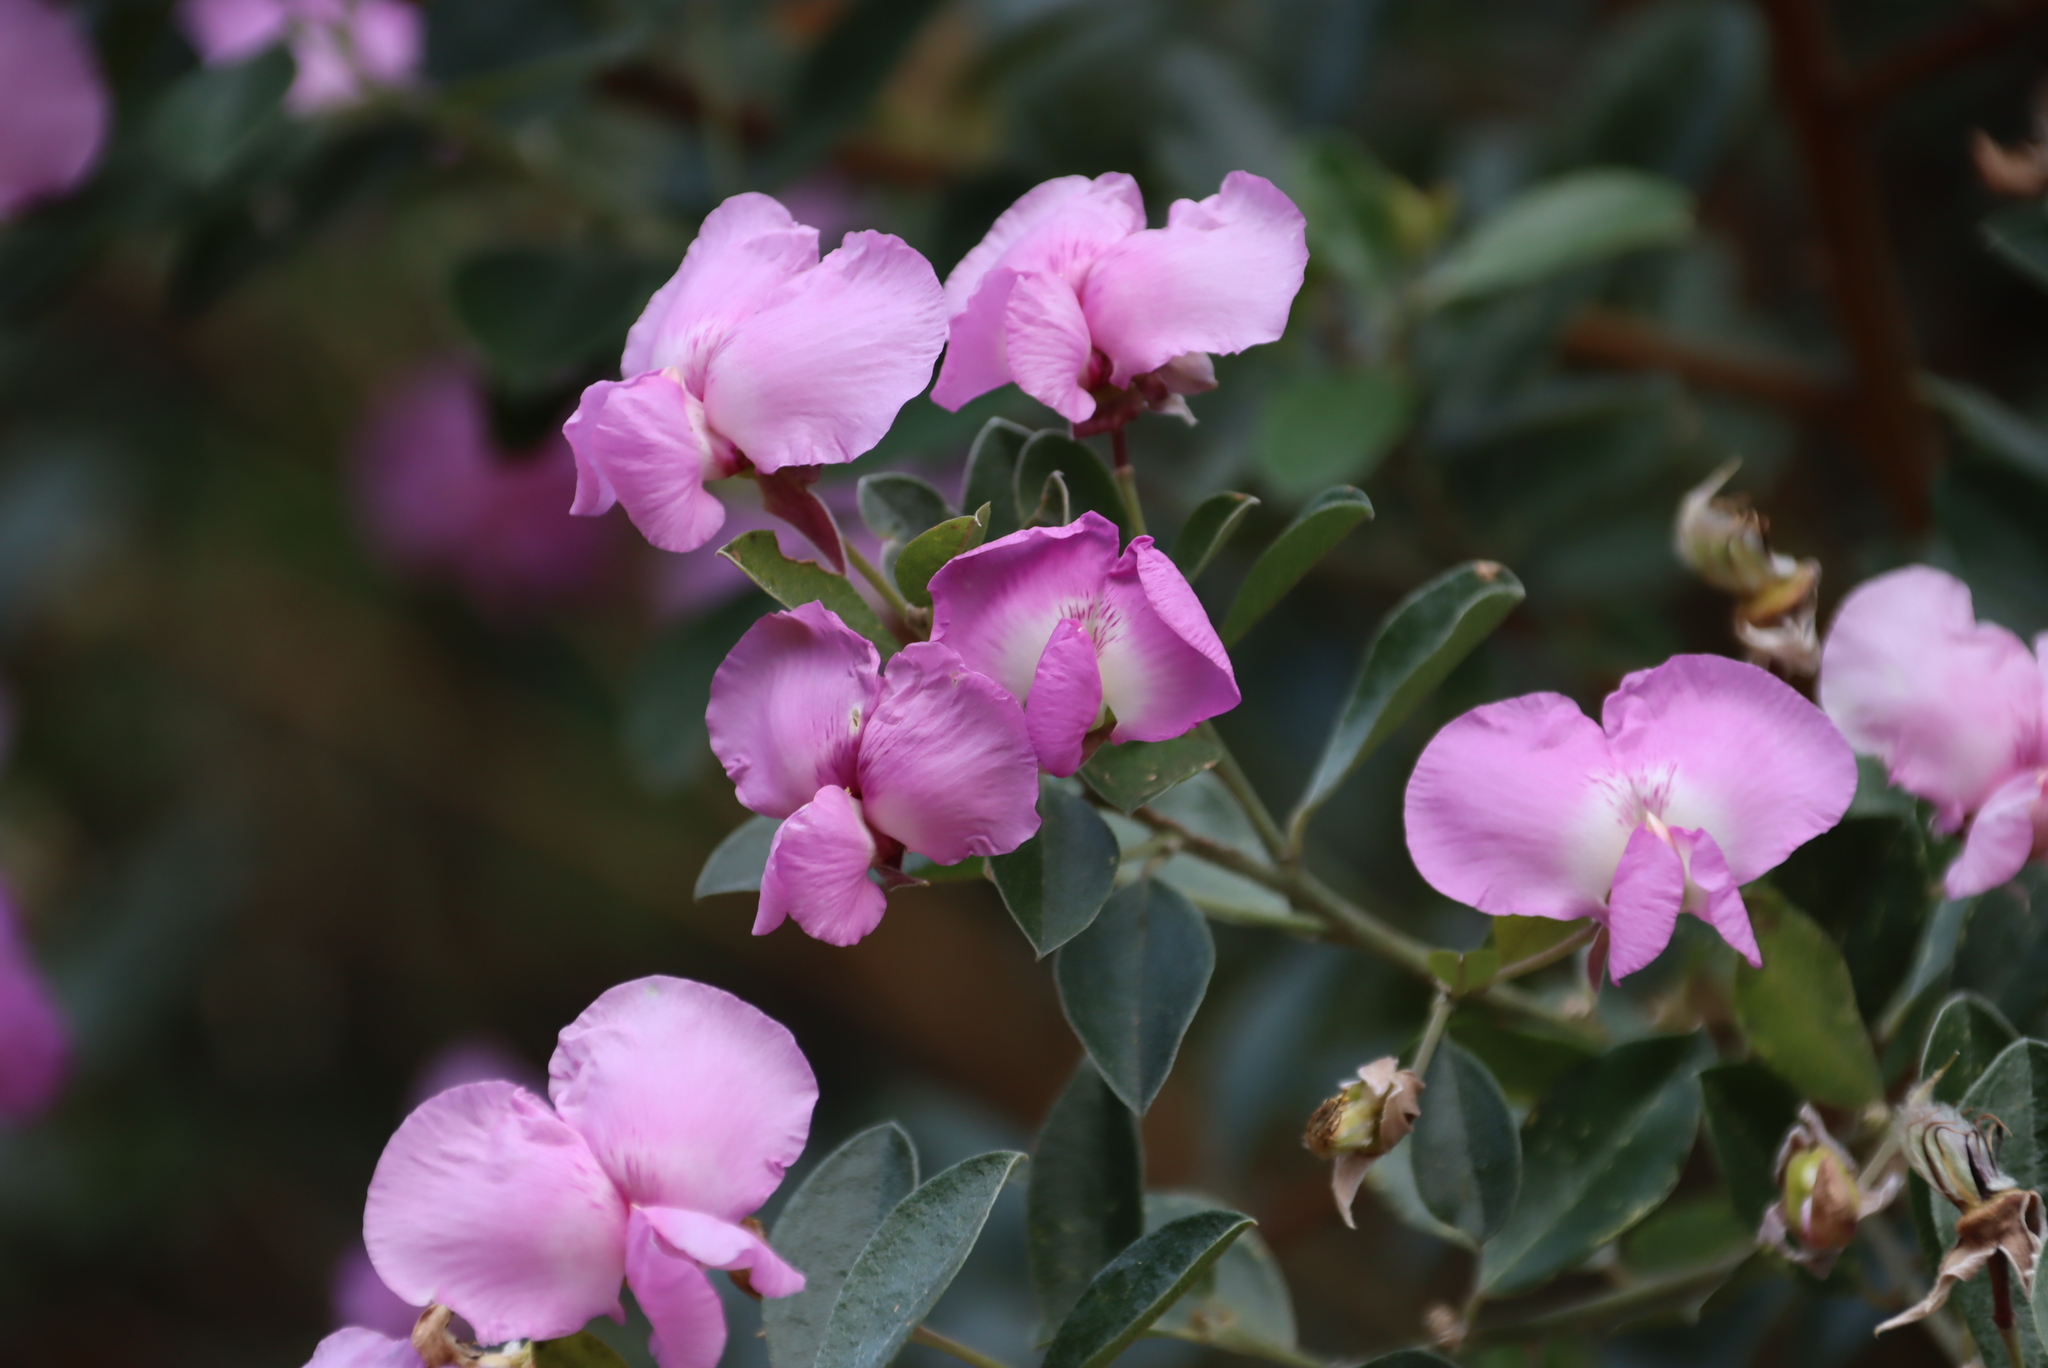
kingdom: Plantae
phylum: Tracheophyta
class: Magnoliopsida
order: Fabales
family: Fabaceae
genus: Podalyria
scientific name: Podalyria calyptrata
